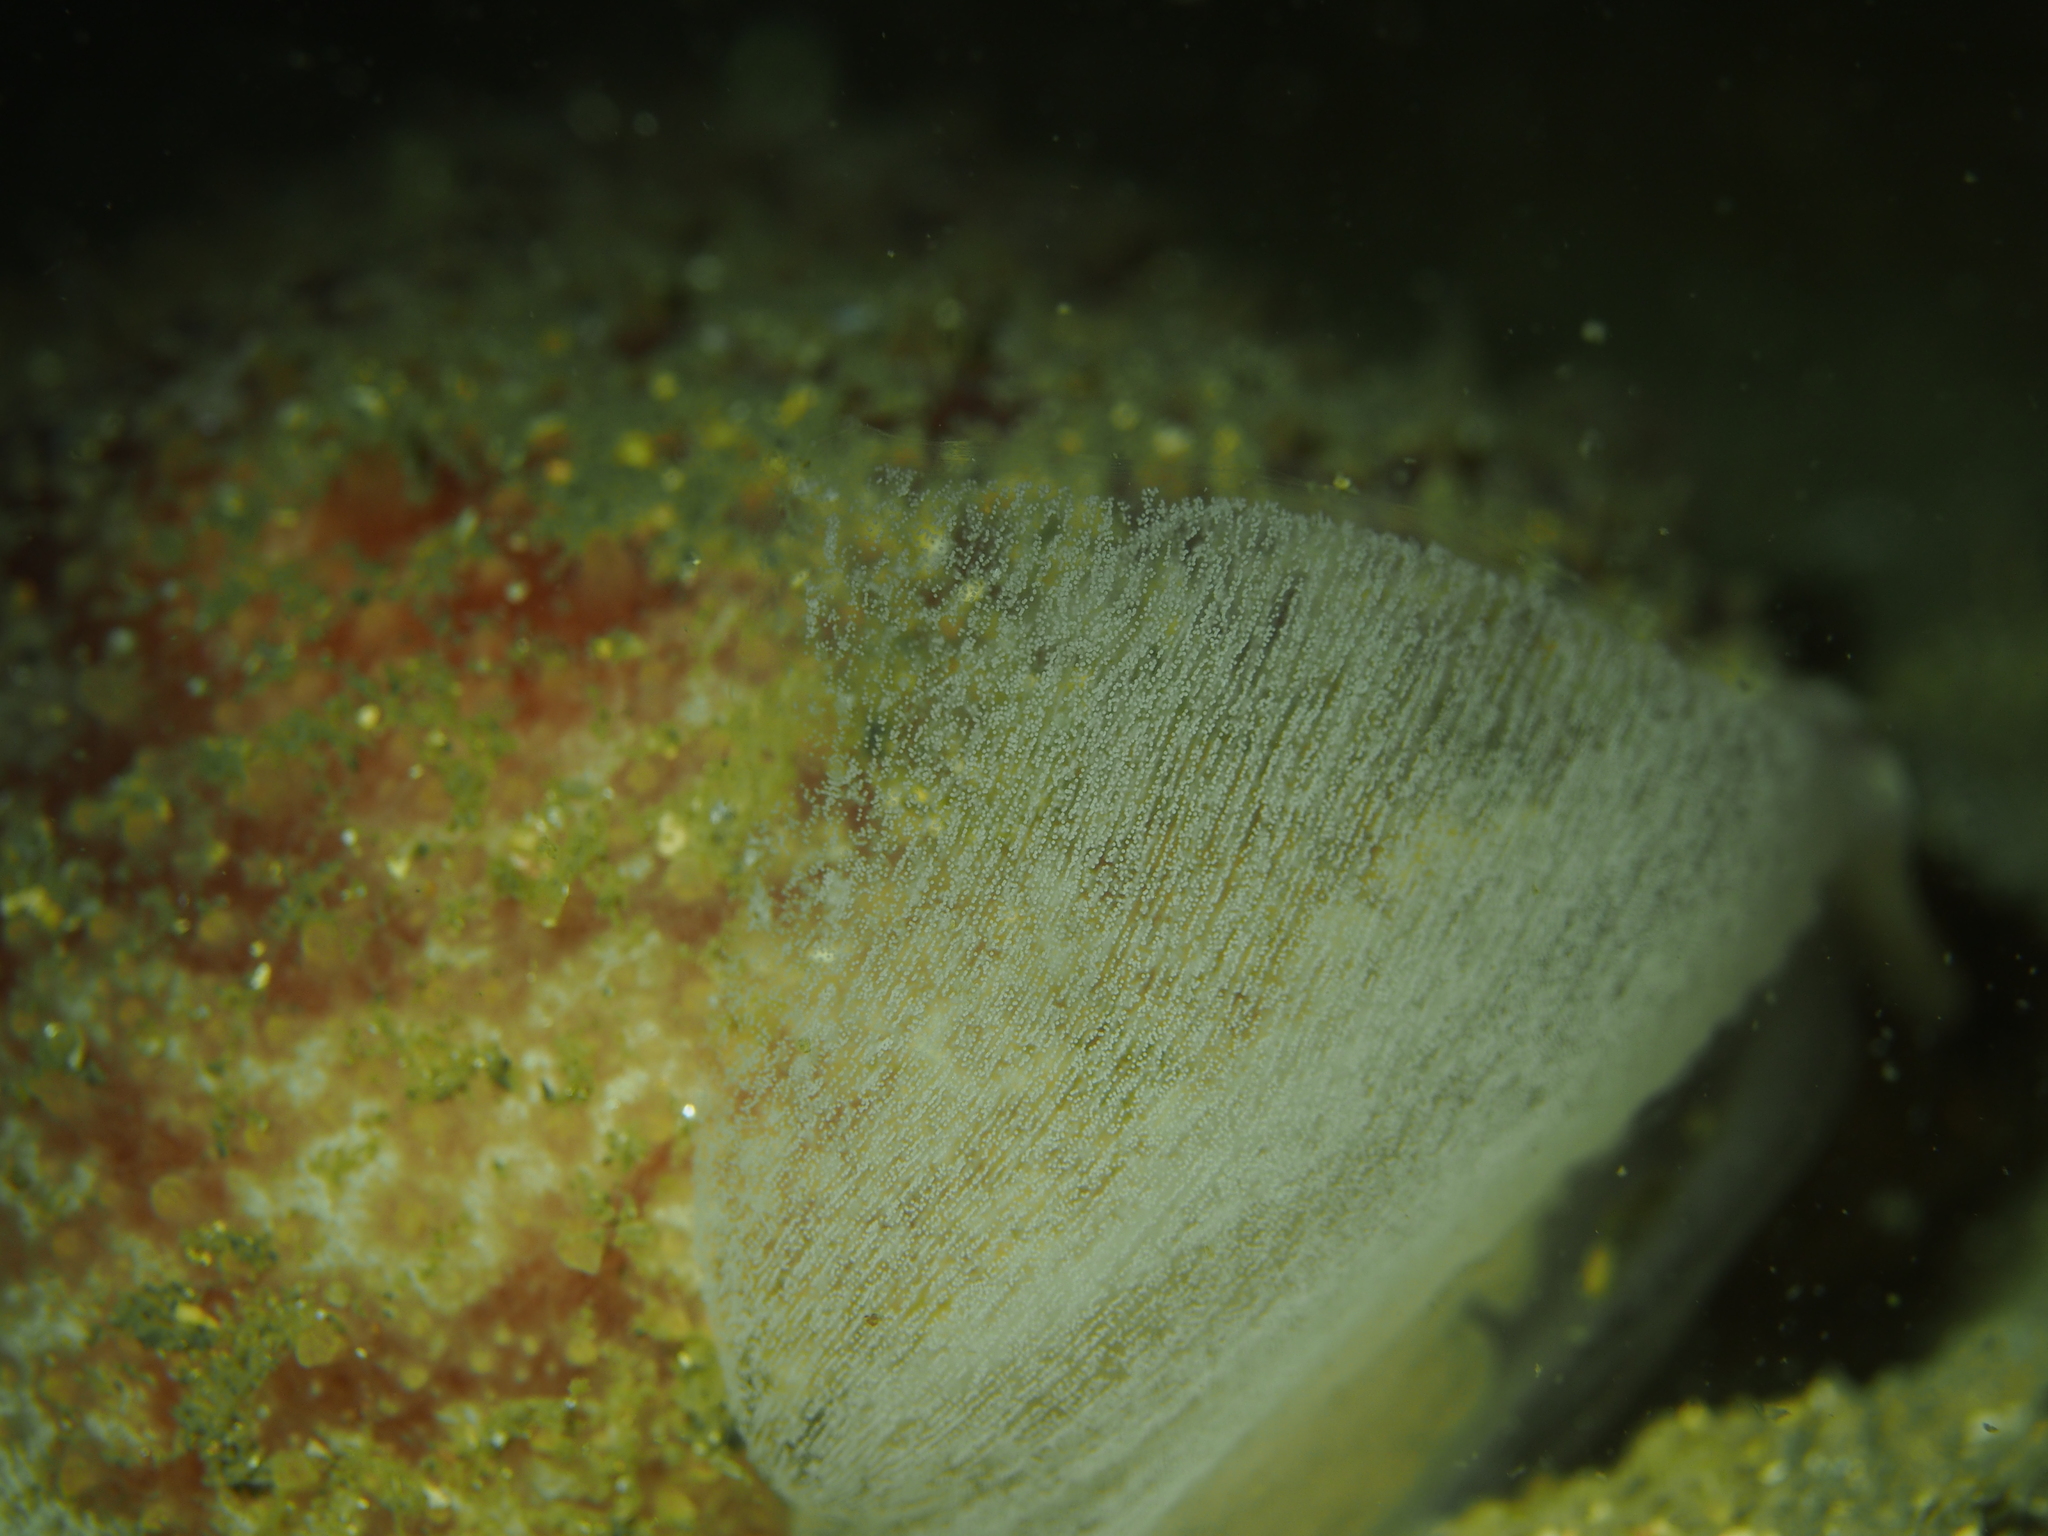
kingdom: Animalia
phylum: Mollusca
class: Gastropoda
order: Pleurobranchida
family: Pleurobranchidae
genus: Pleurobranchus
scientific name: Pleurobranchus membranaceus
